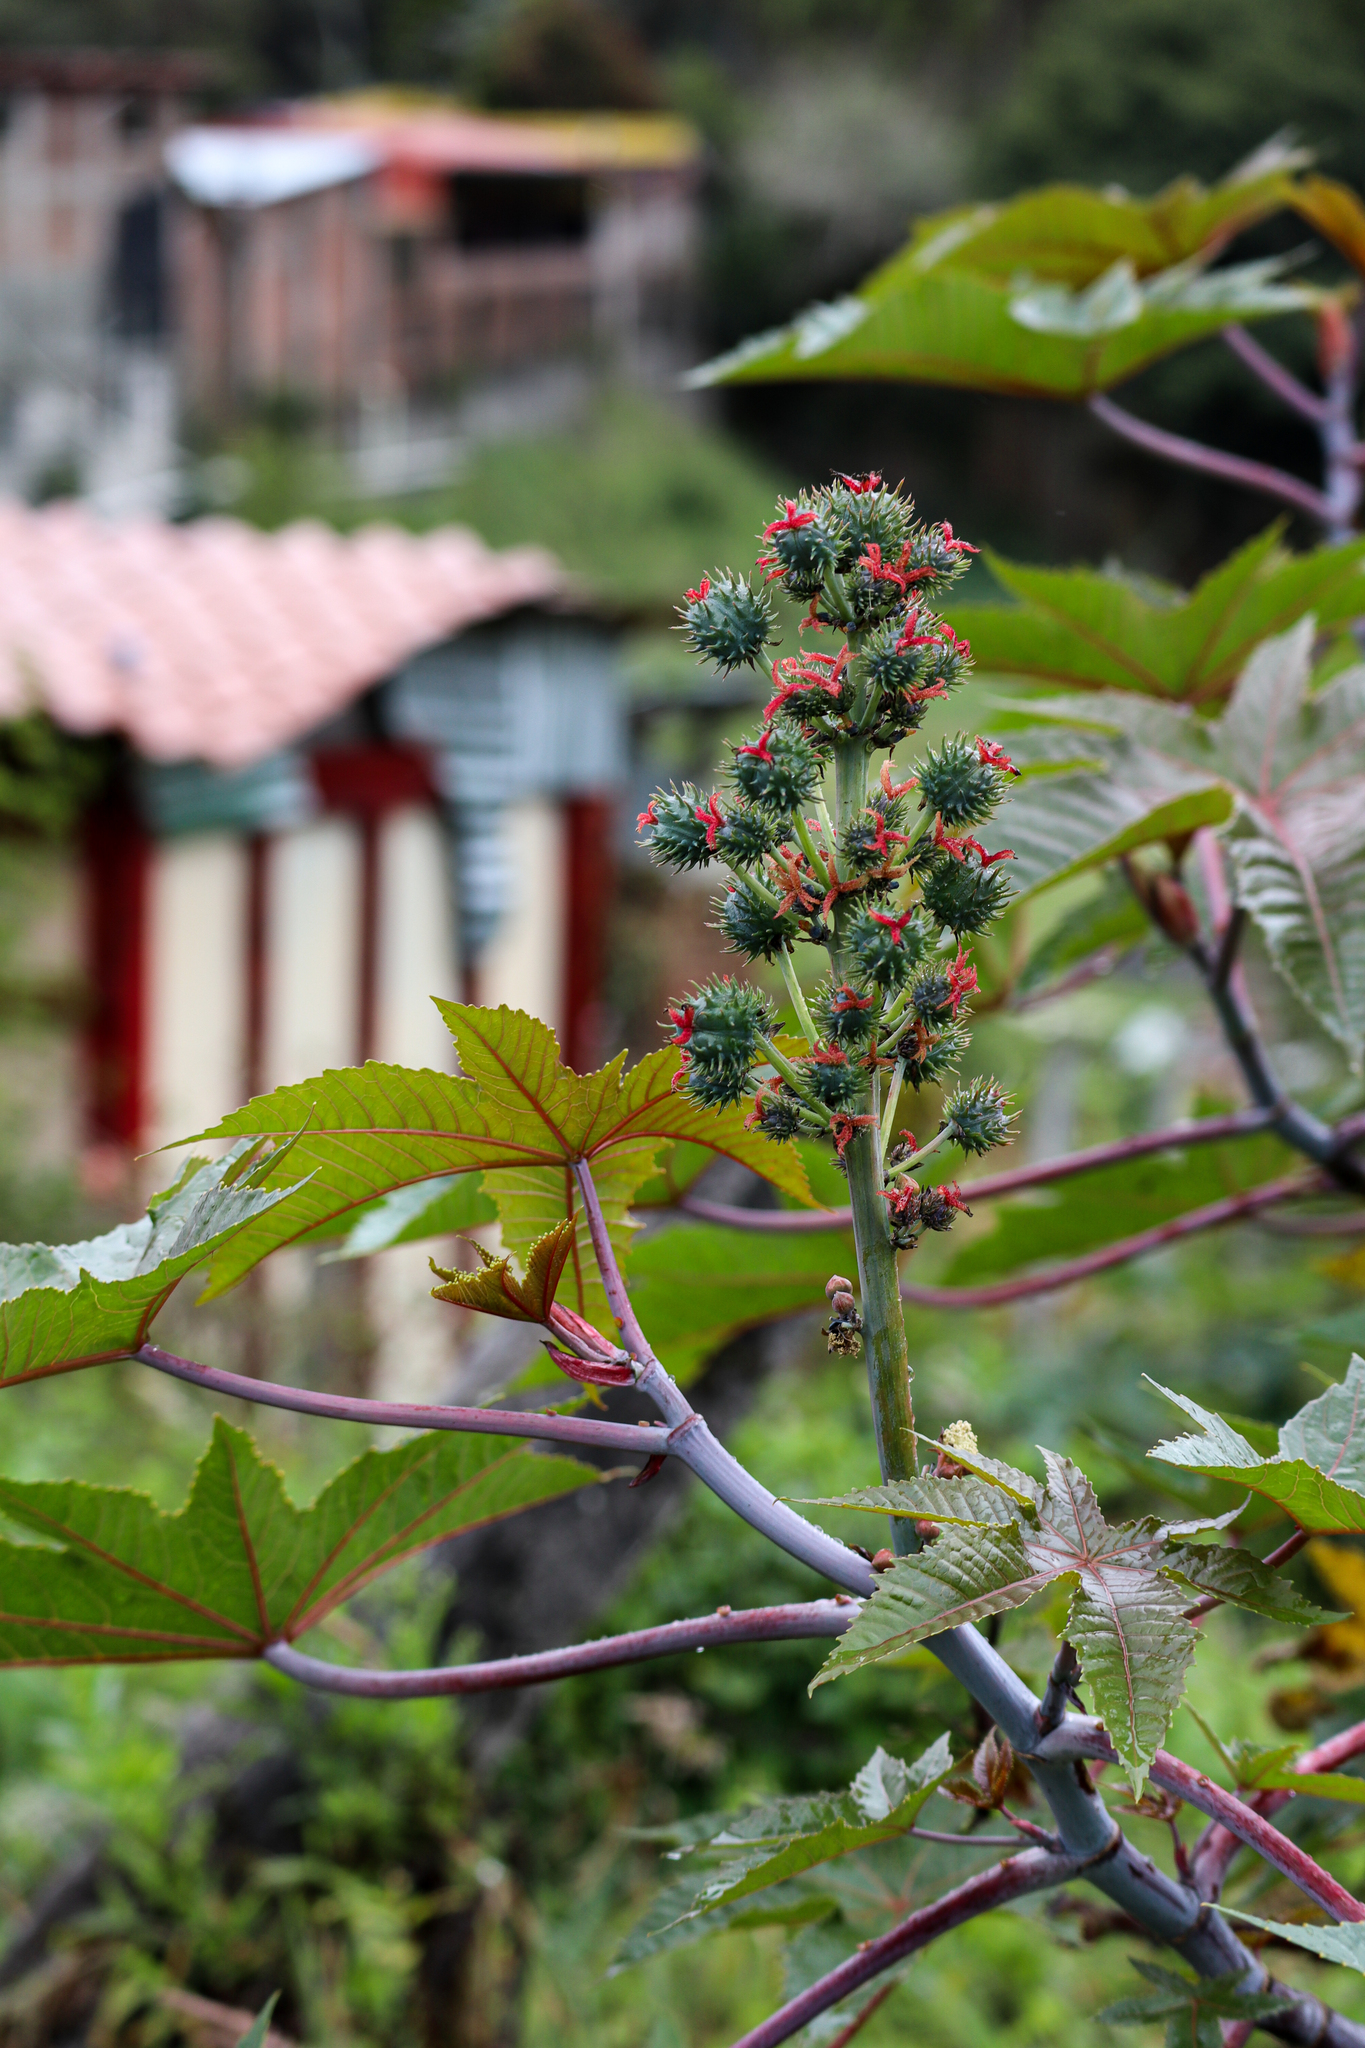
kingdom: Plantae
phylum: Tracheophyta
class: Magnoliopsida
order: Malpighiales
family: Euphorbiaceae
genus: Ricinus
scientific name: Ricinus communis
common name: Castor-oil-plant
